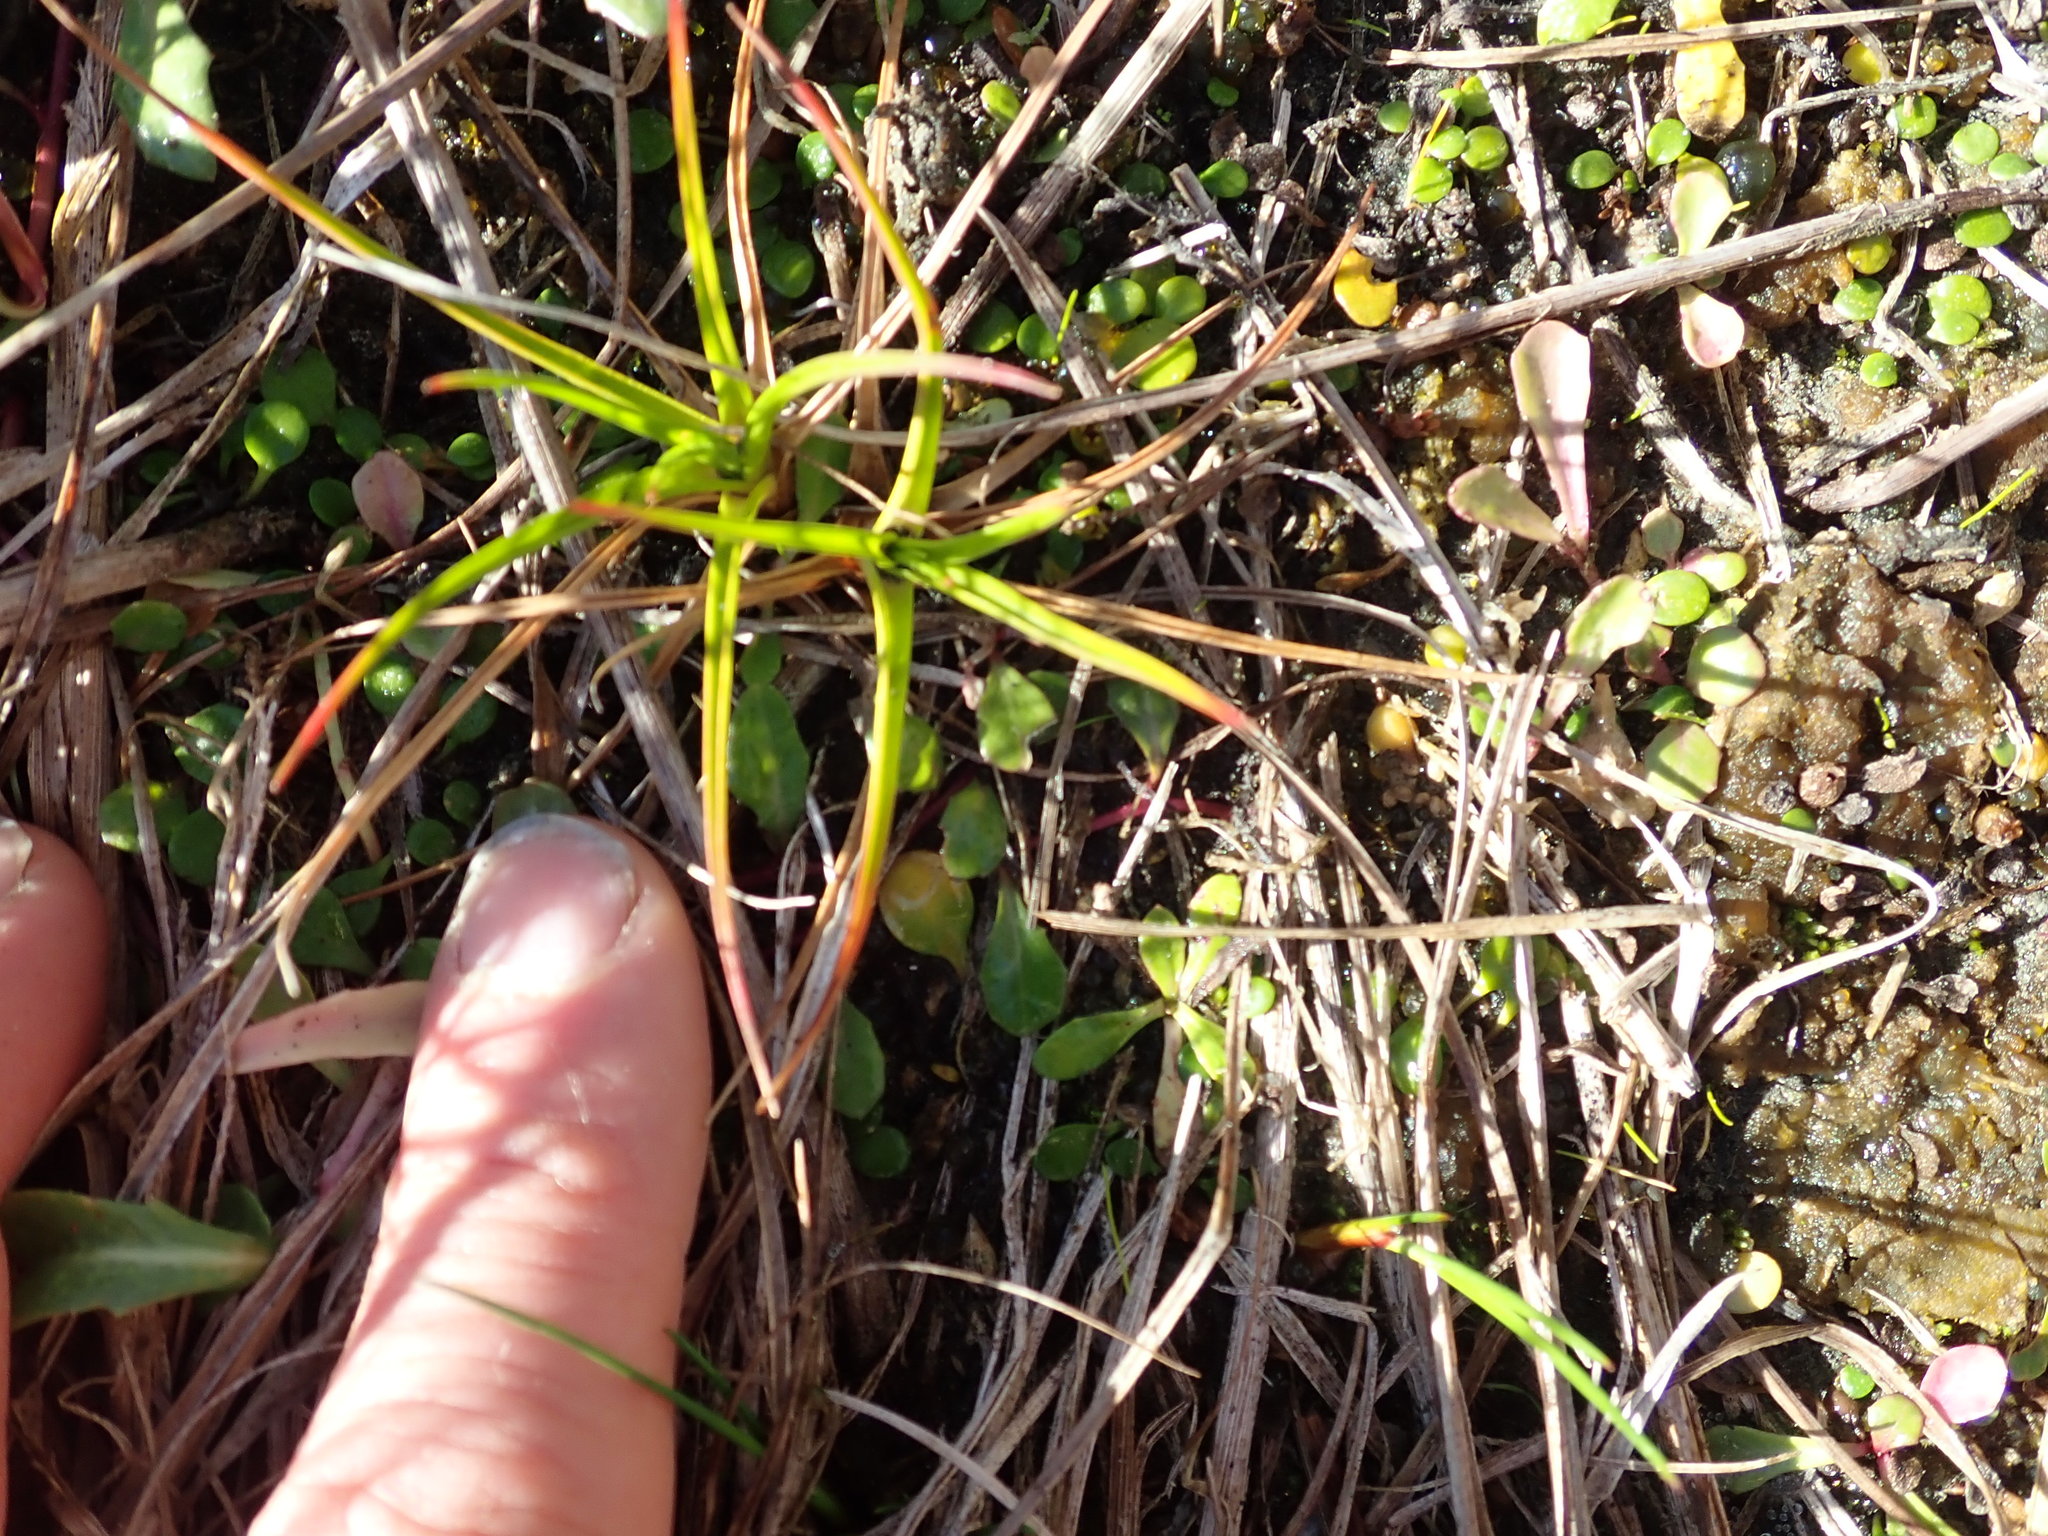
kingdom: Plantae
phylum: Tracheophyta
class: Liliopsida
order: Poales
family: Juncaceae
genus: Juncus
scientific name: Juncus caespiticius
